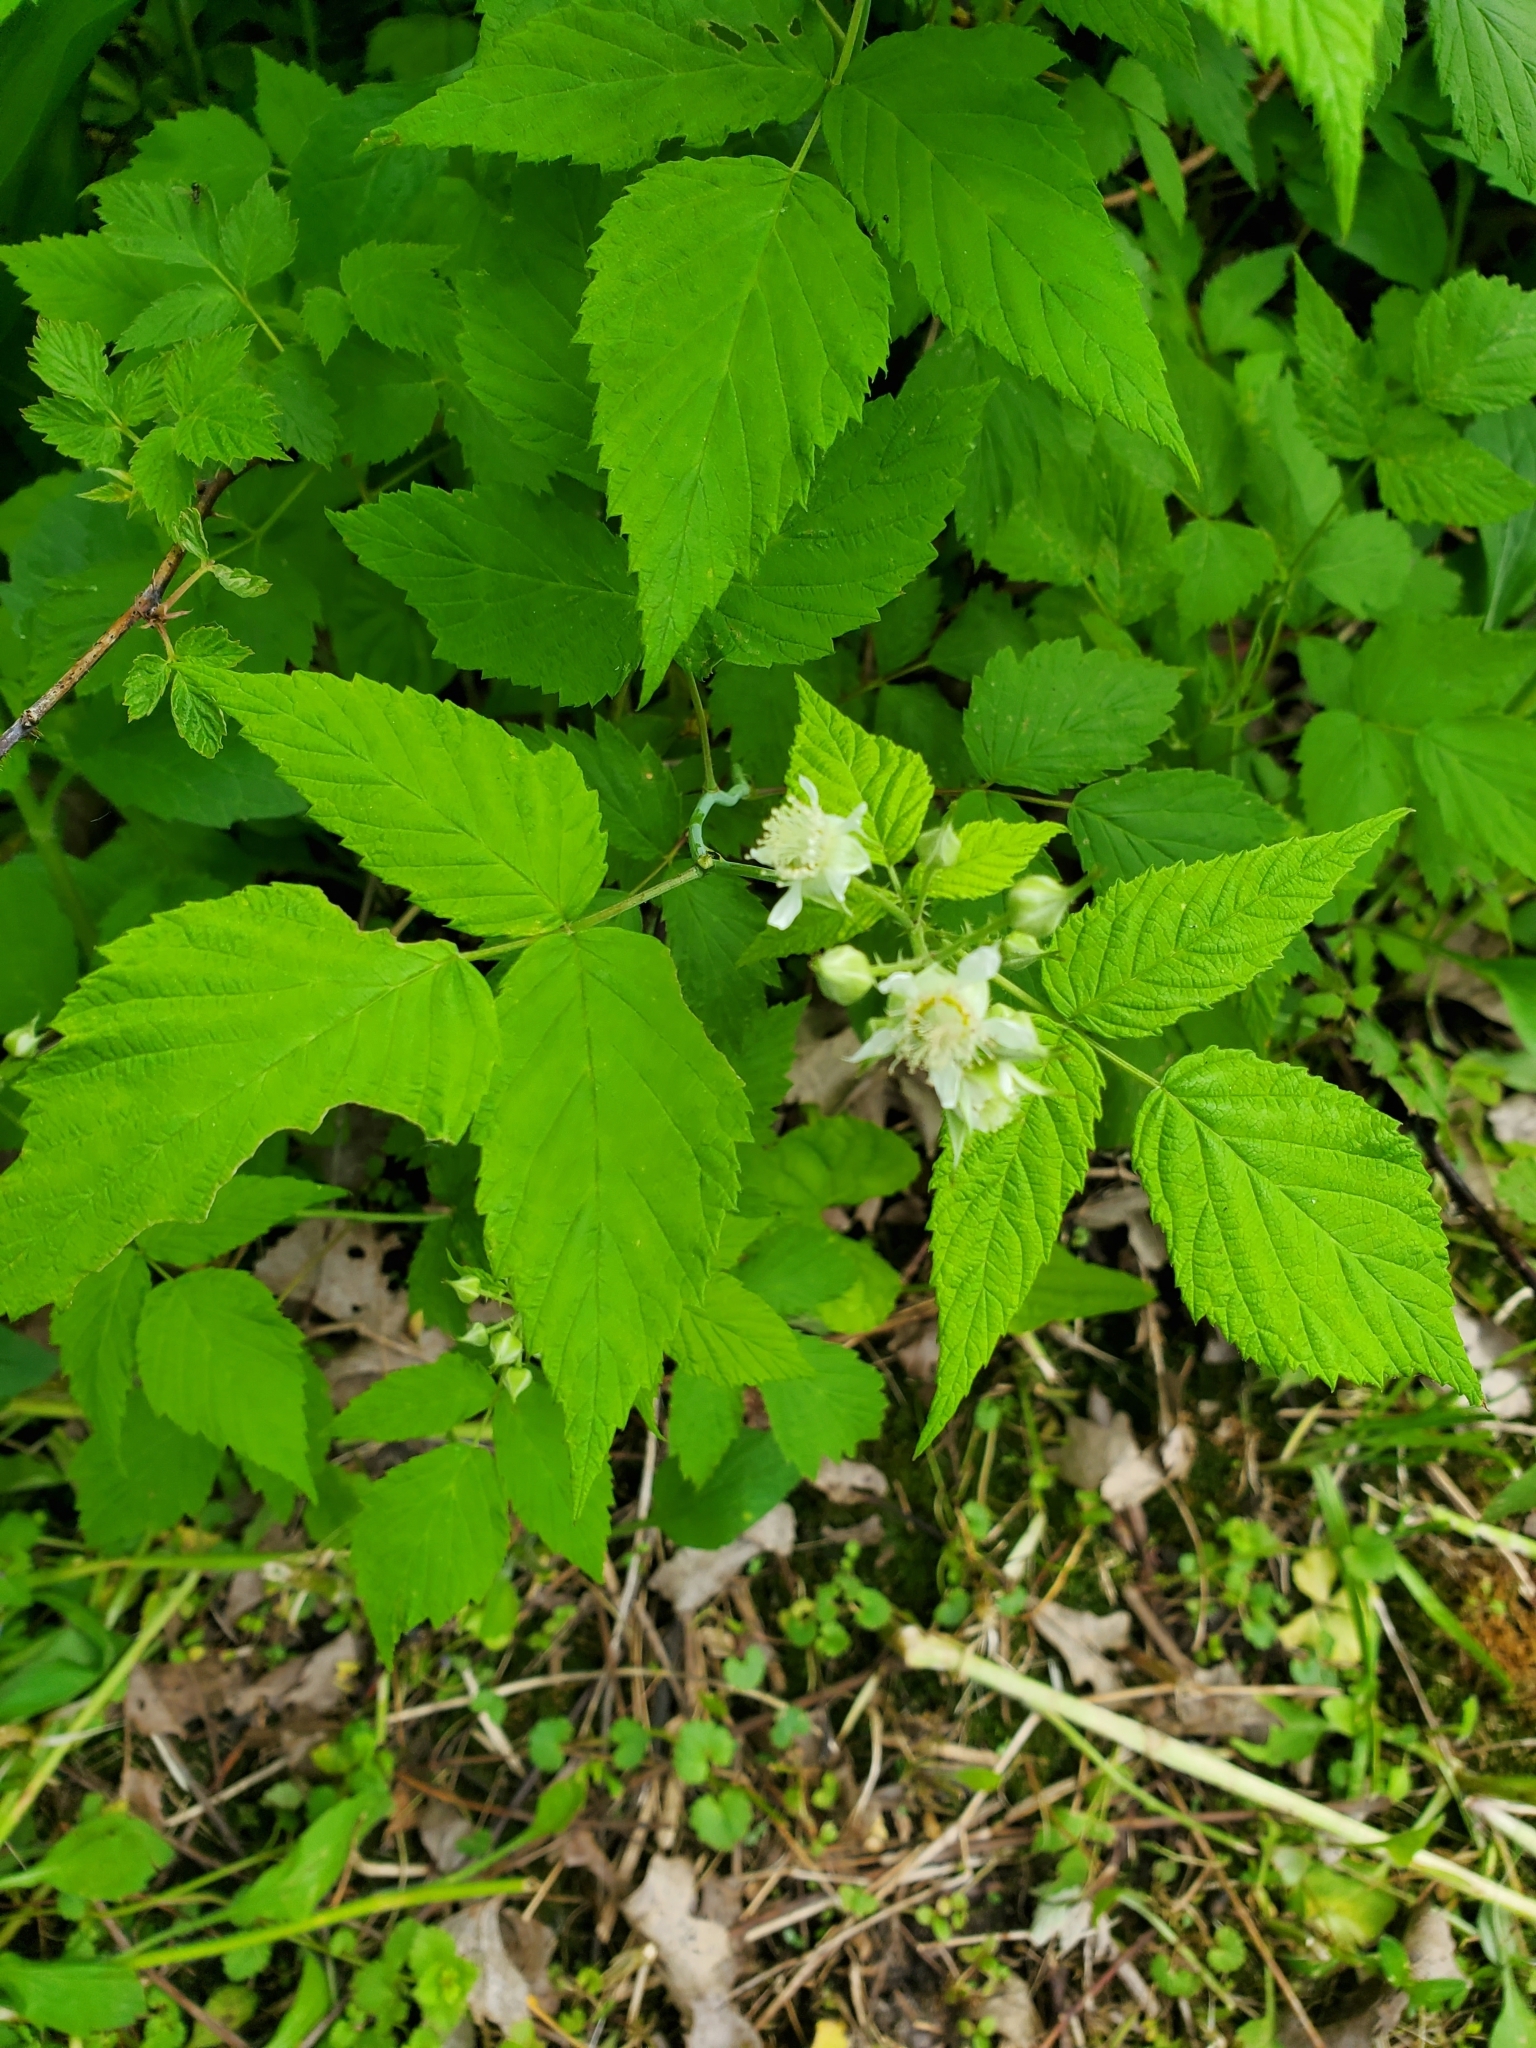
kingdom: Plantae
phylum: Tracheophyta
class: Magnoliopsida
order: Rosales
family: Rosaceae
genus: Rubus
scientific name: Rubus occidentalis
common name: Black raspberry
